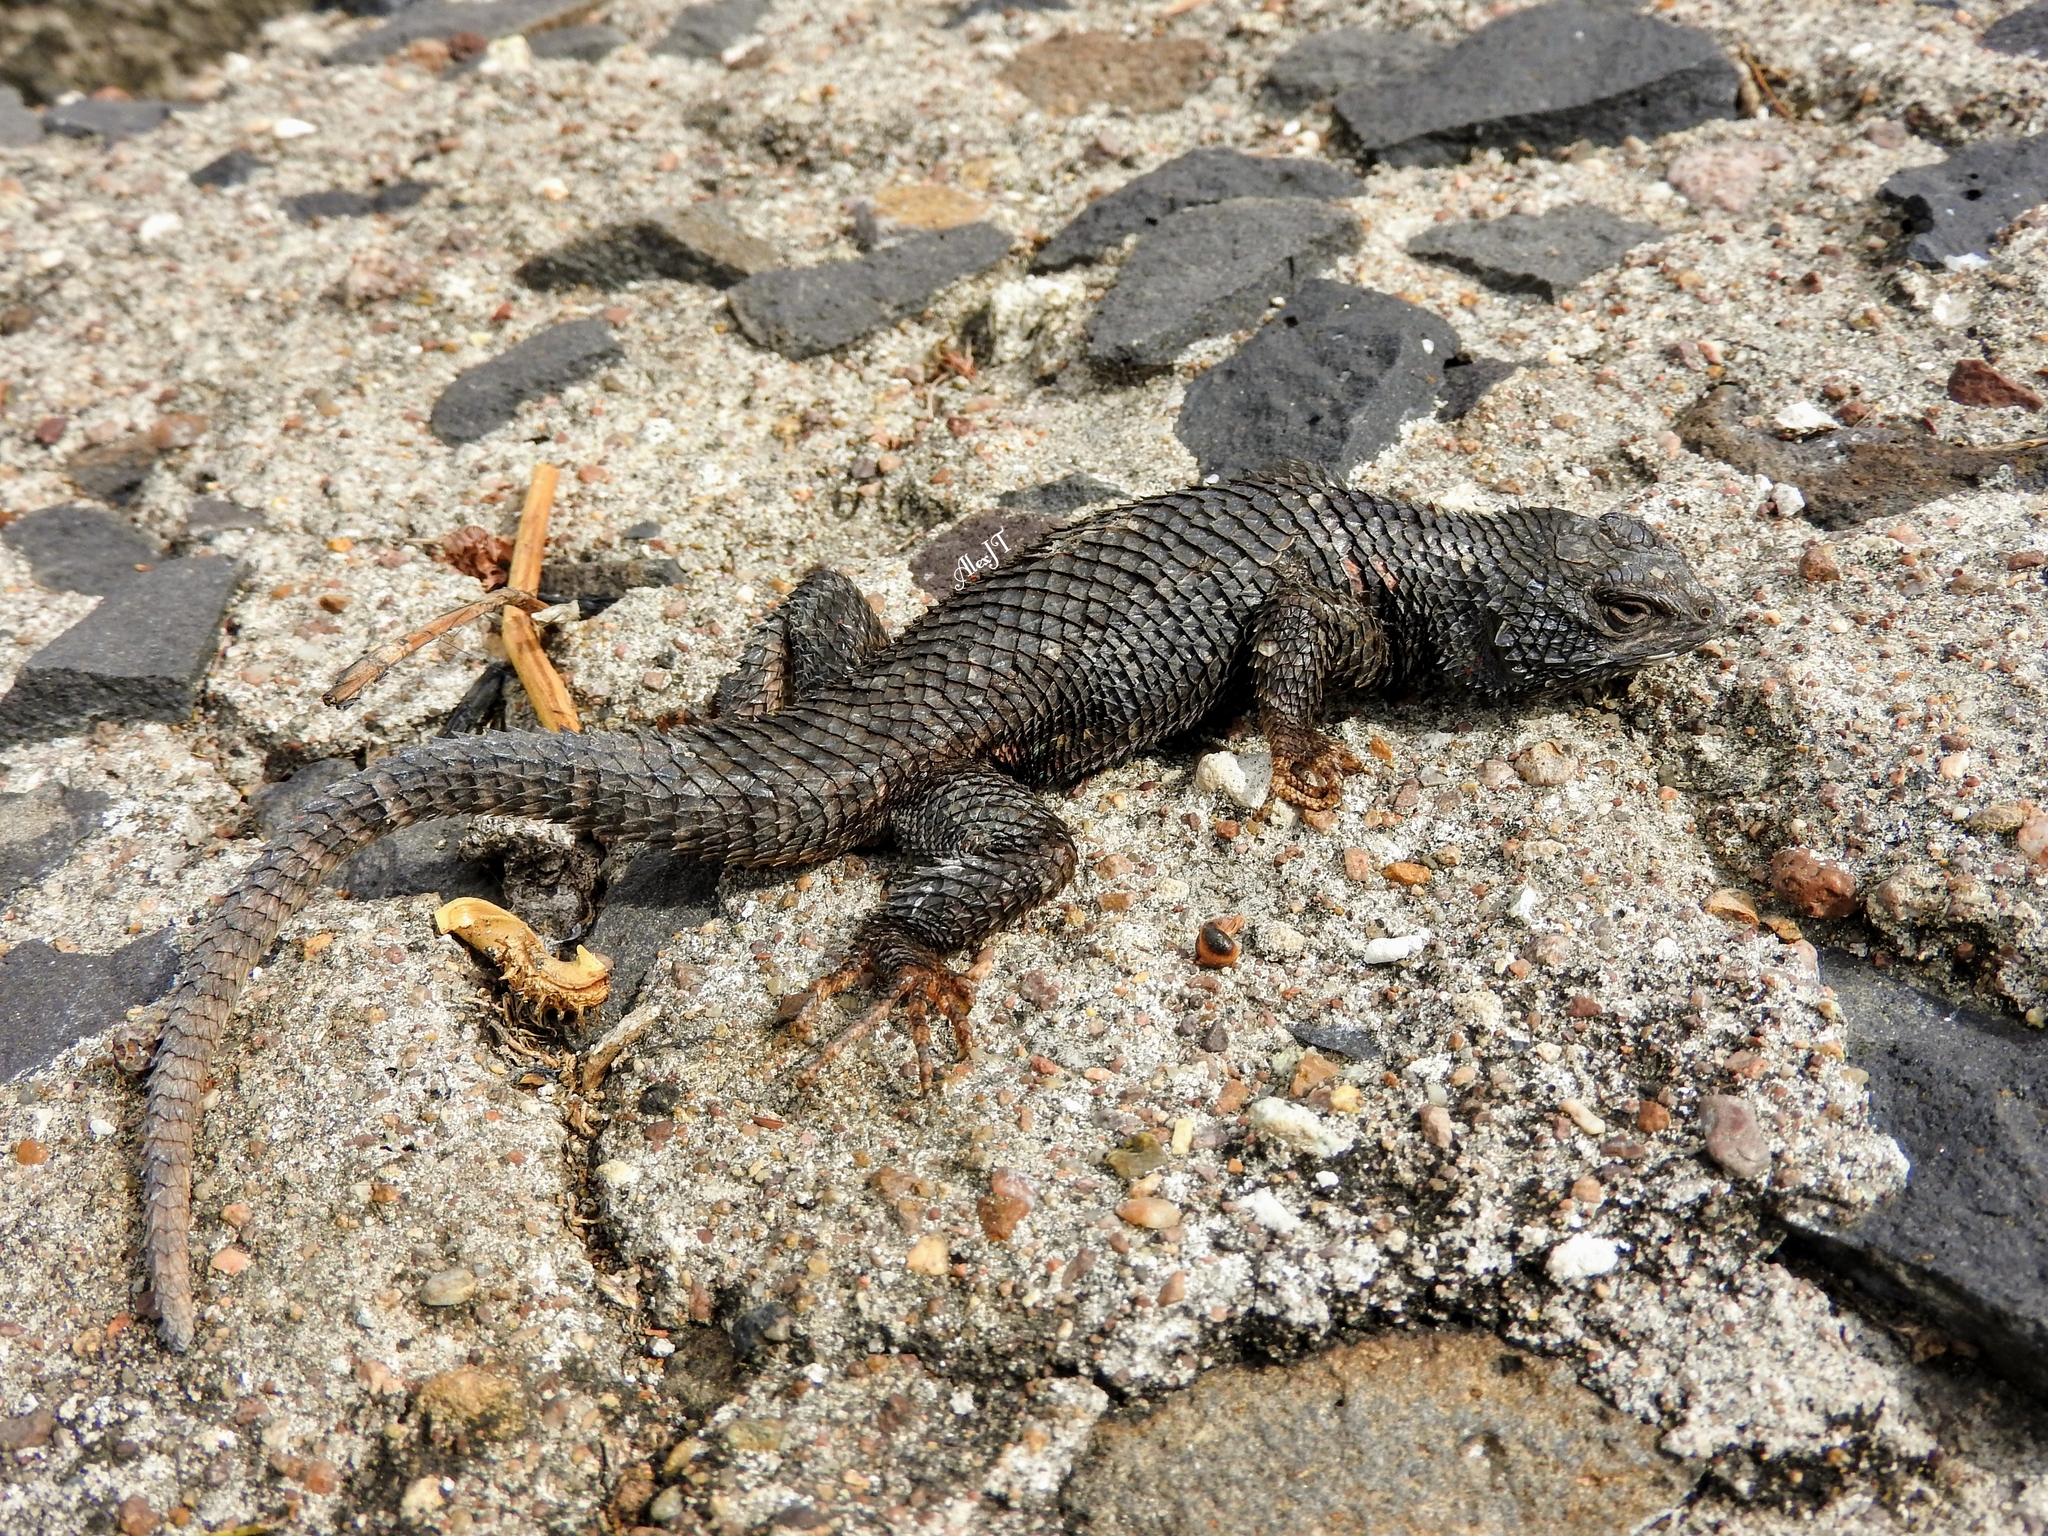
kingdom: Animalia
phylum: Chordata
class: Squamata
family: Phrynosomatidae
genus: Sceloporus
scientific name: Sceloporus torquatus
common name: Central plateau torquate lizard [melanogaster]
